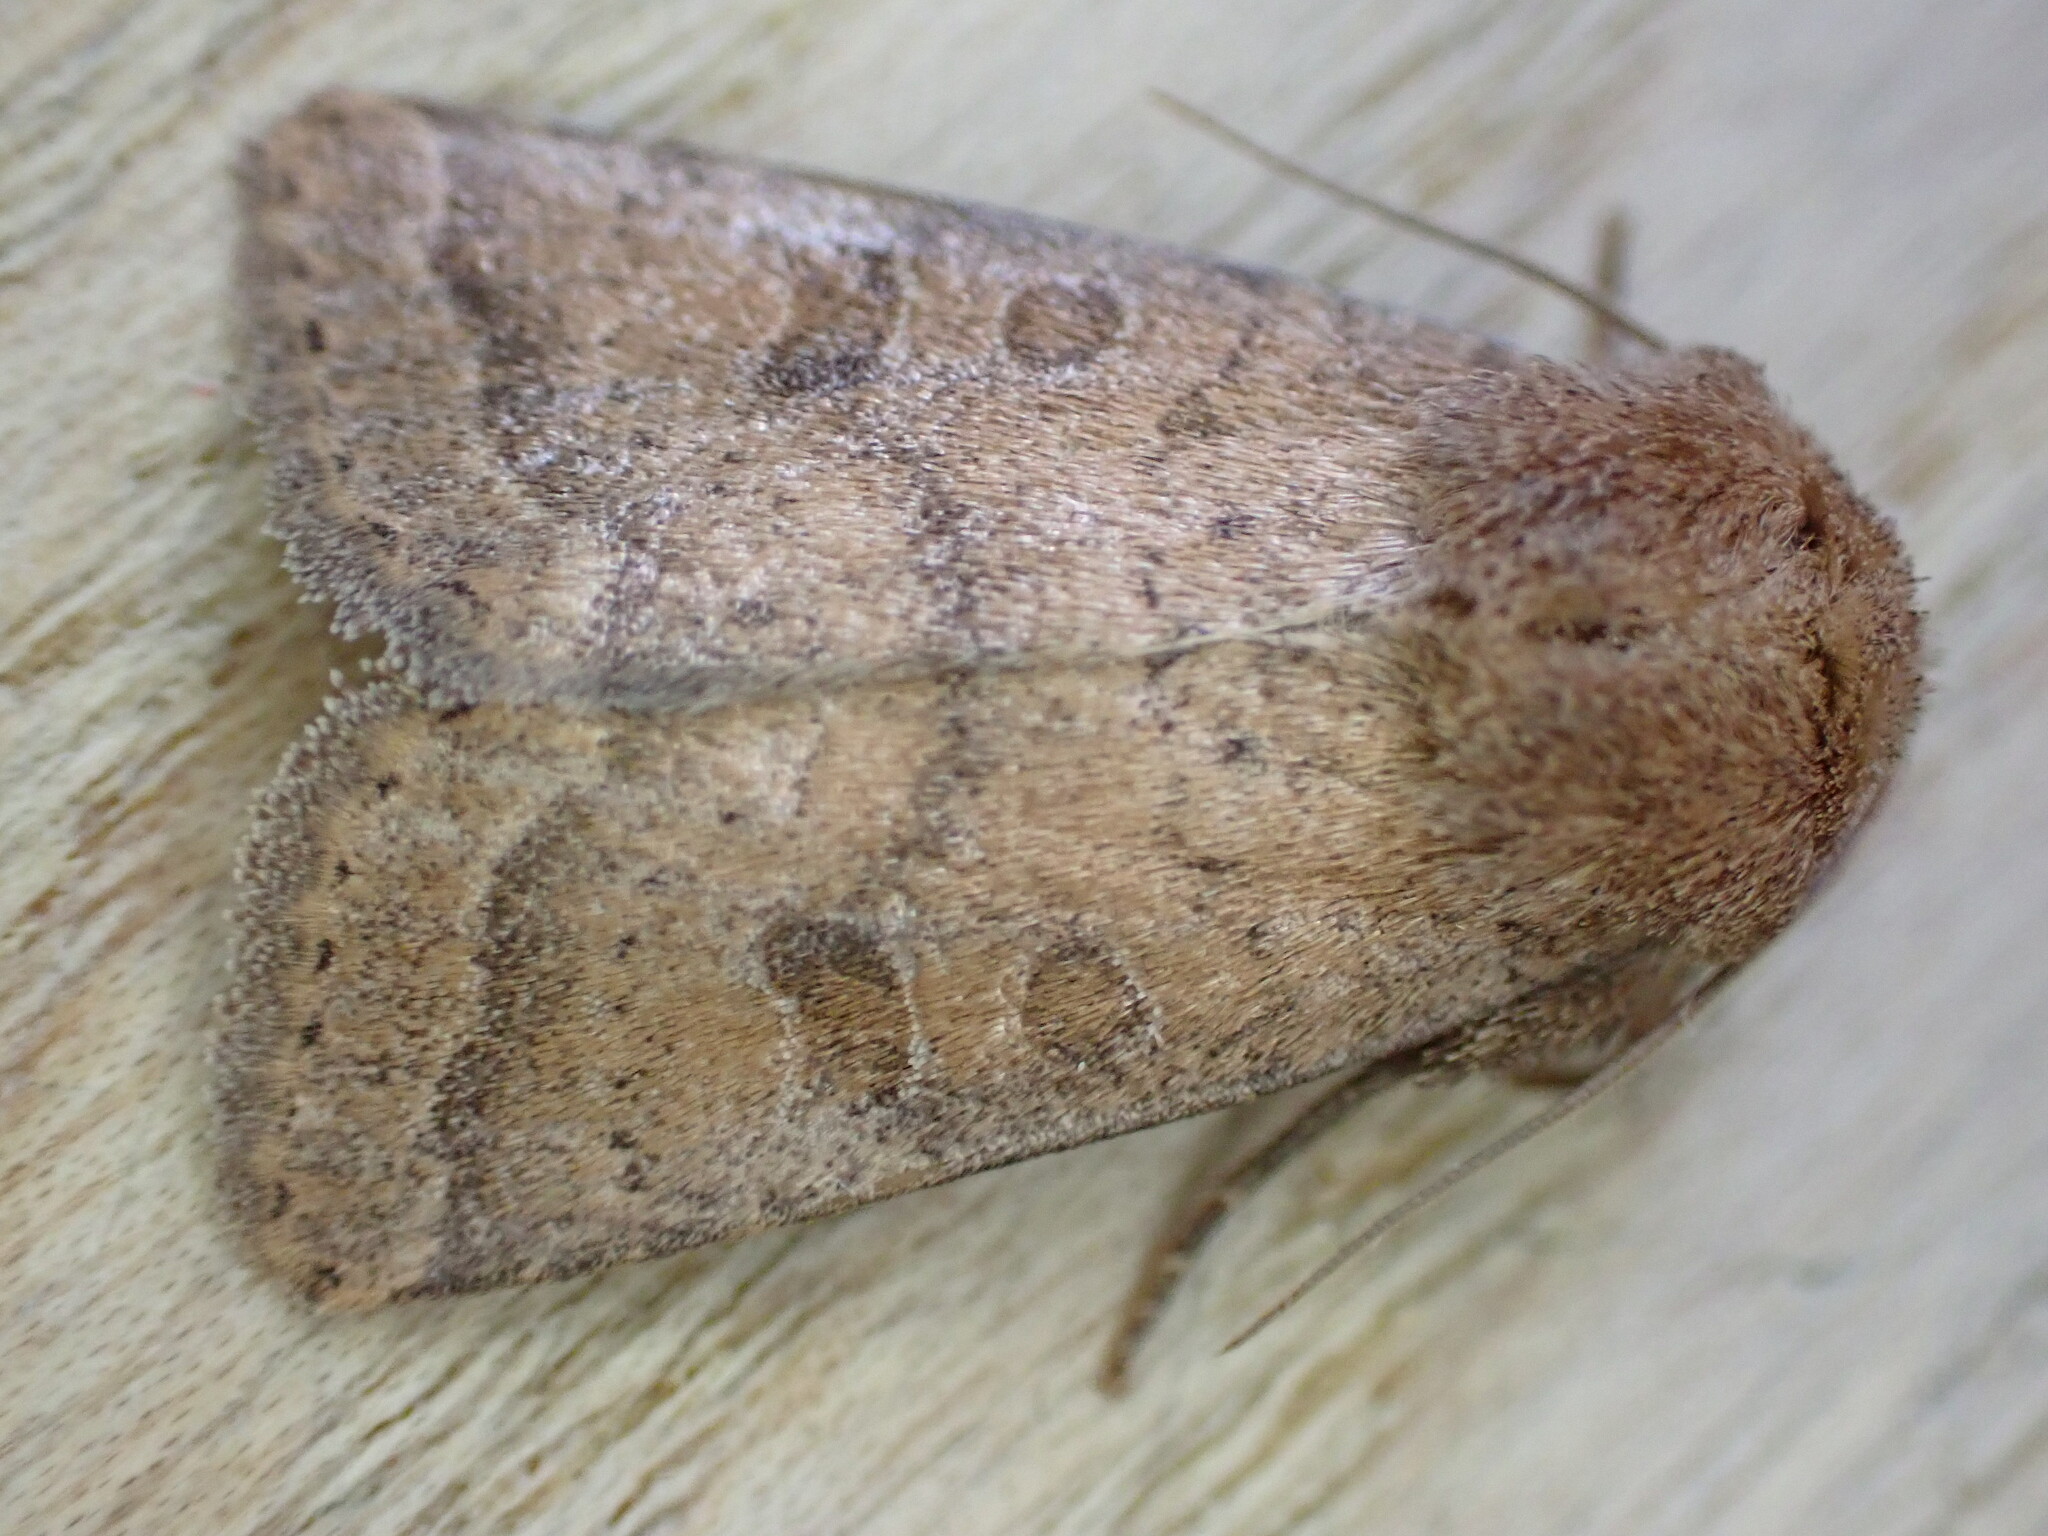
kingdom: Animalia
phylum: Arthropoda
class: Insecta
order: Lepidoptera
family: Noctuidae
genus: Hoplodrina
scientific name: Hoplodrina octogenaria
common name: Uncertain
